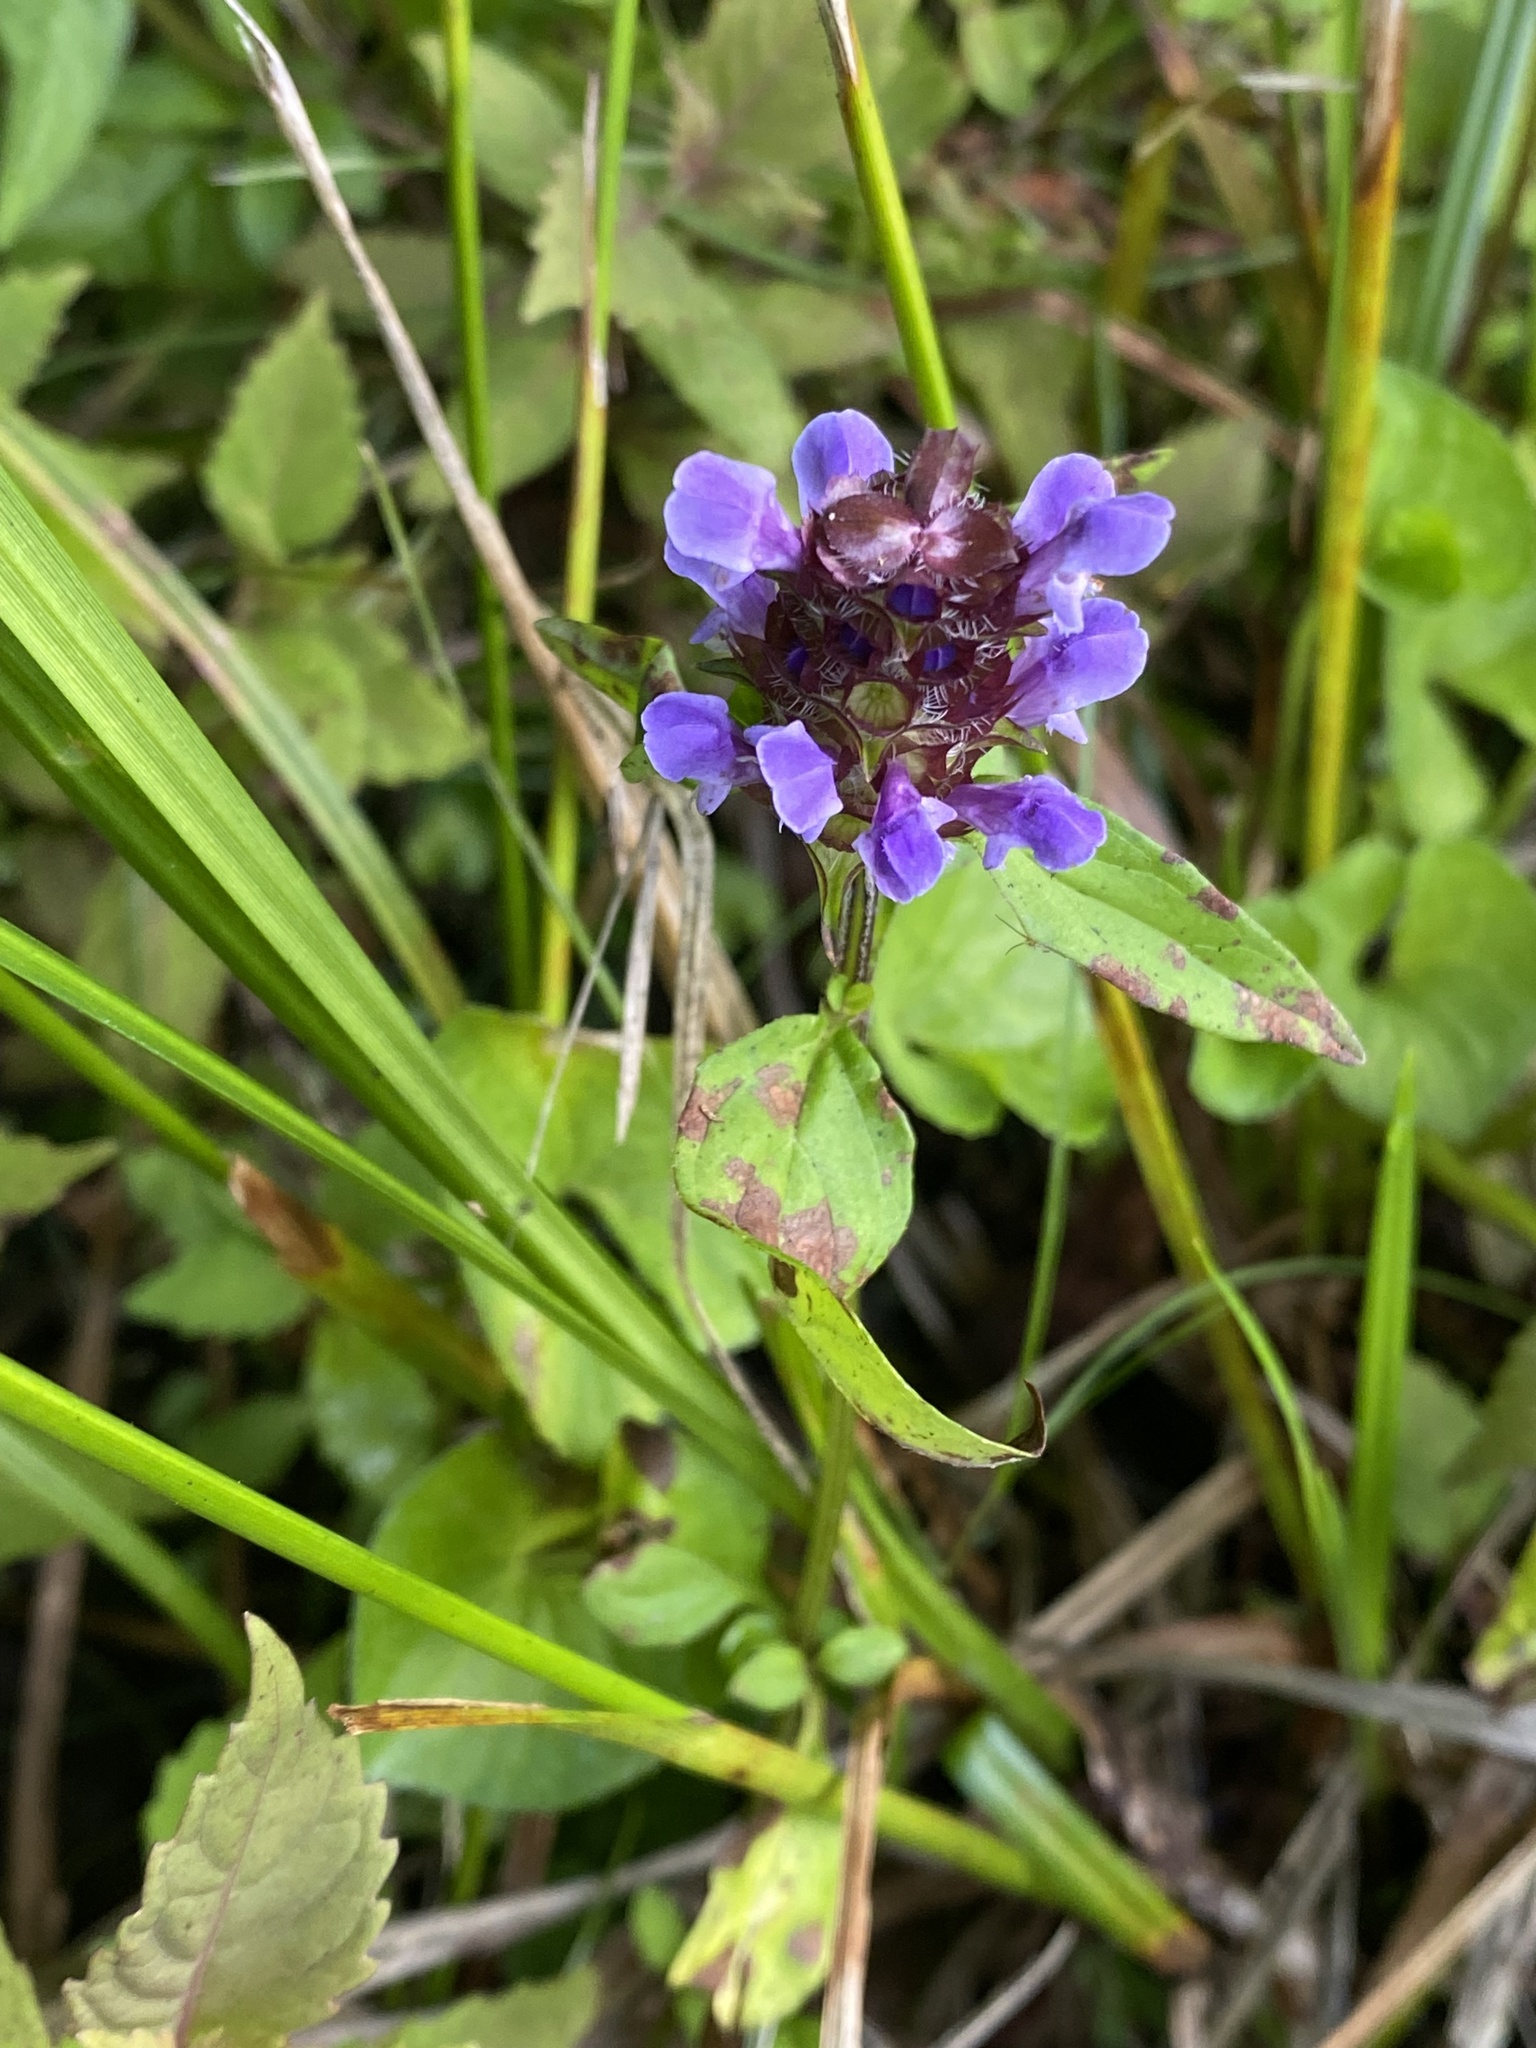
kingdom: Plantae
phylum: Tracheophyta
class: Magnoliopsida
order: Lamiales
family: Lamiaceae
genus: Prunella
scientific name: Prunella vulgaris
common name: Heal-all
